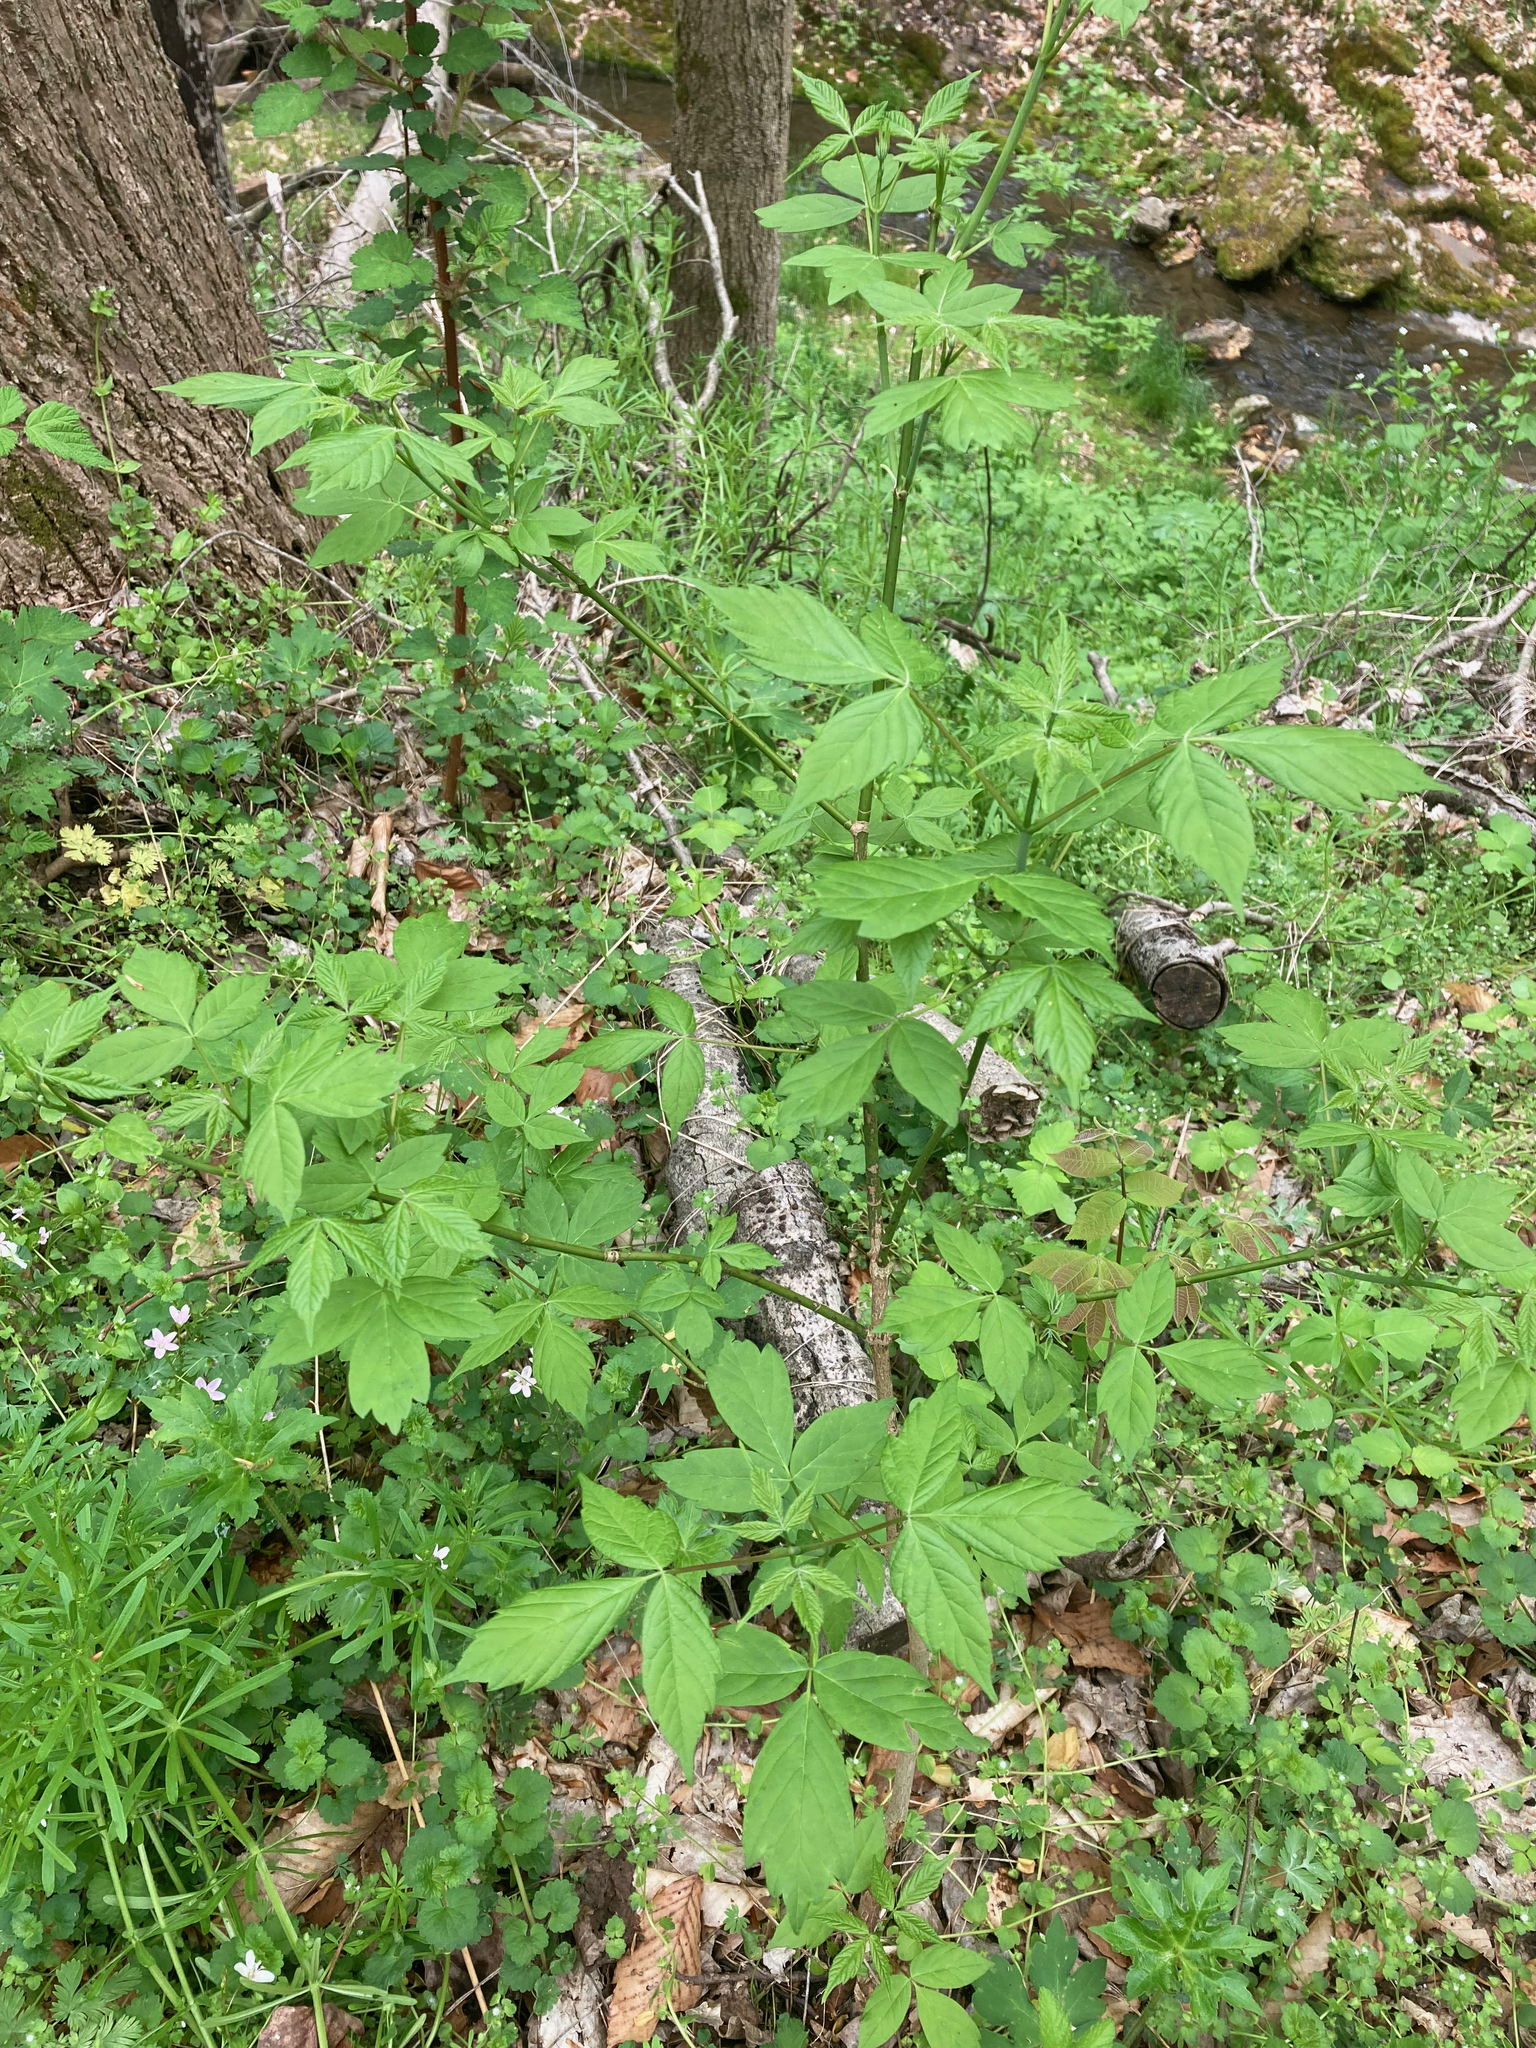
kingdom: Plantae
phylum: Tracheophyta
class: Magnoliopsida
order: Sapindales
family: Sapindaceae
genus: Acer
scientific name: Acer negundo
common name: Ashleaf maple
